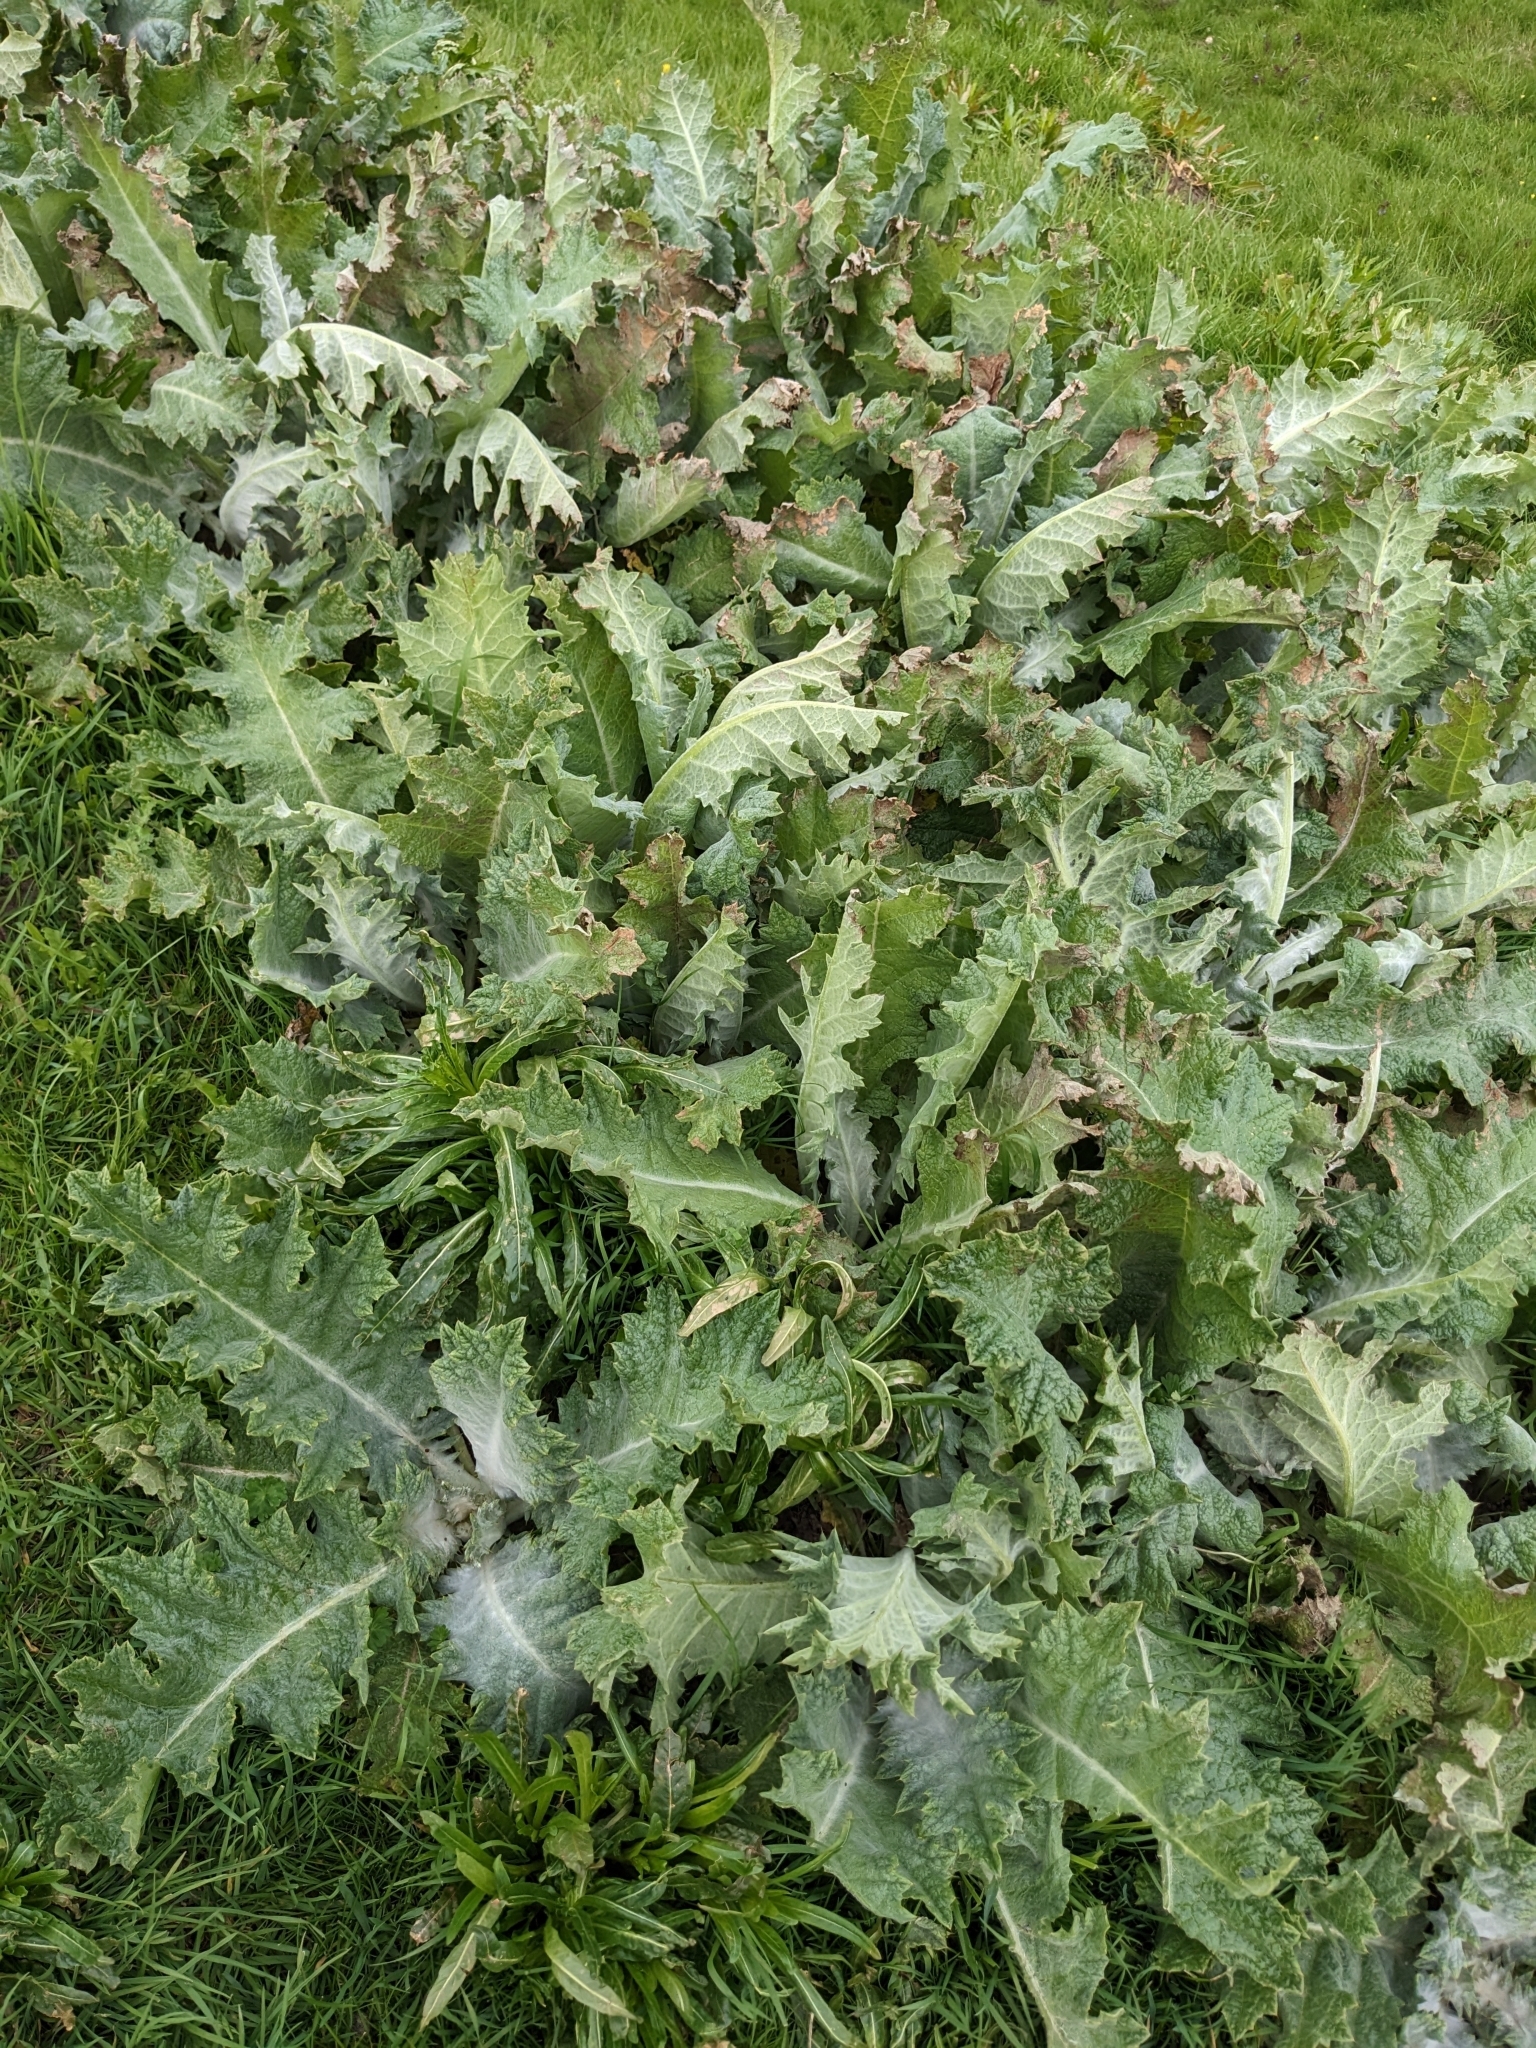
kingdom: Plantae
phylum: Tracheophyta
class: Magnoliopsida
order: Asterales
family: Asteraceae
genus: Onopordum
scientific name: Onopordum acanthium
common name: Scotch thistle
